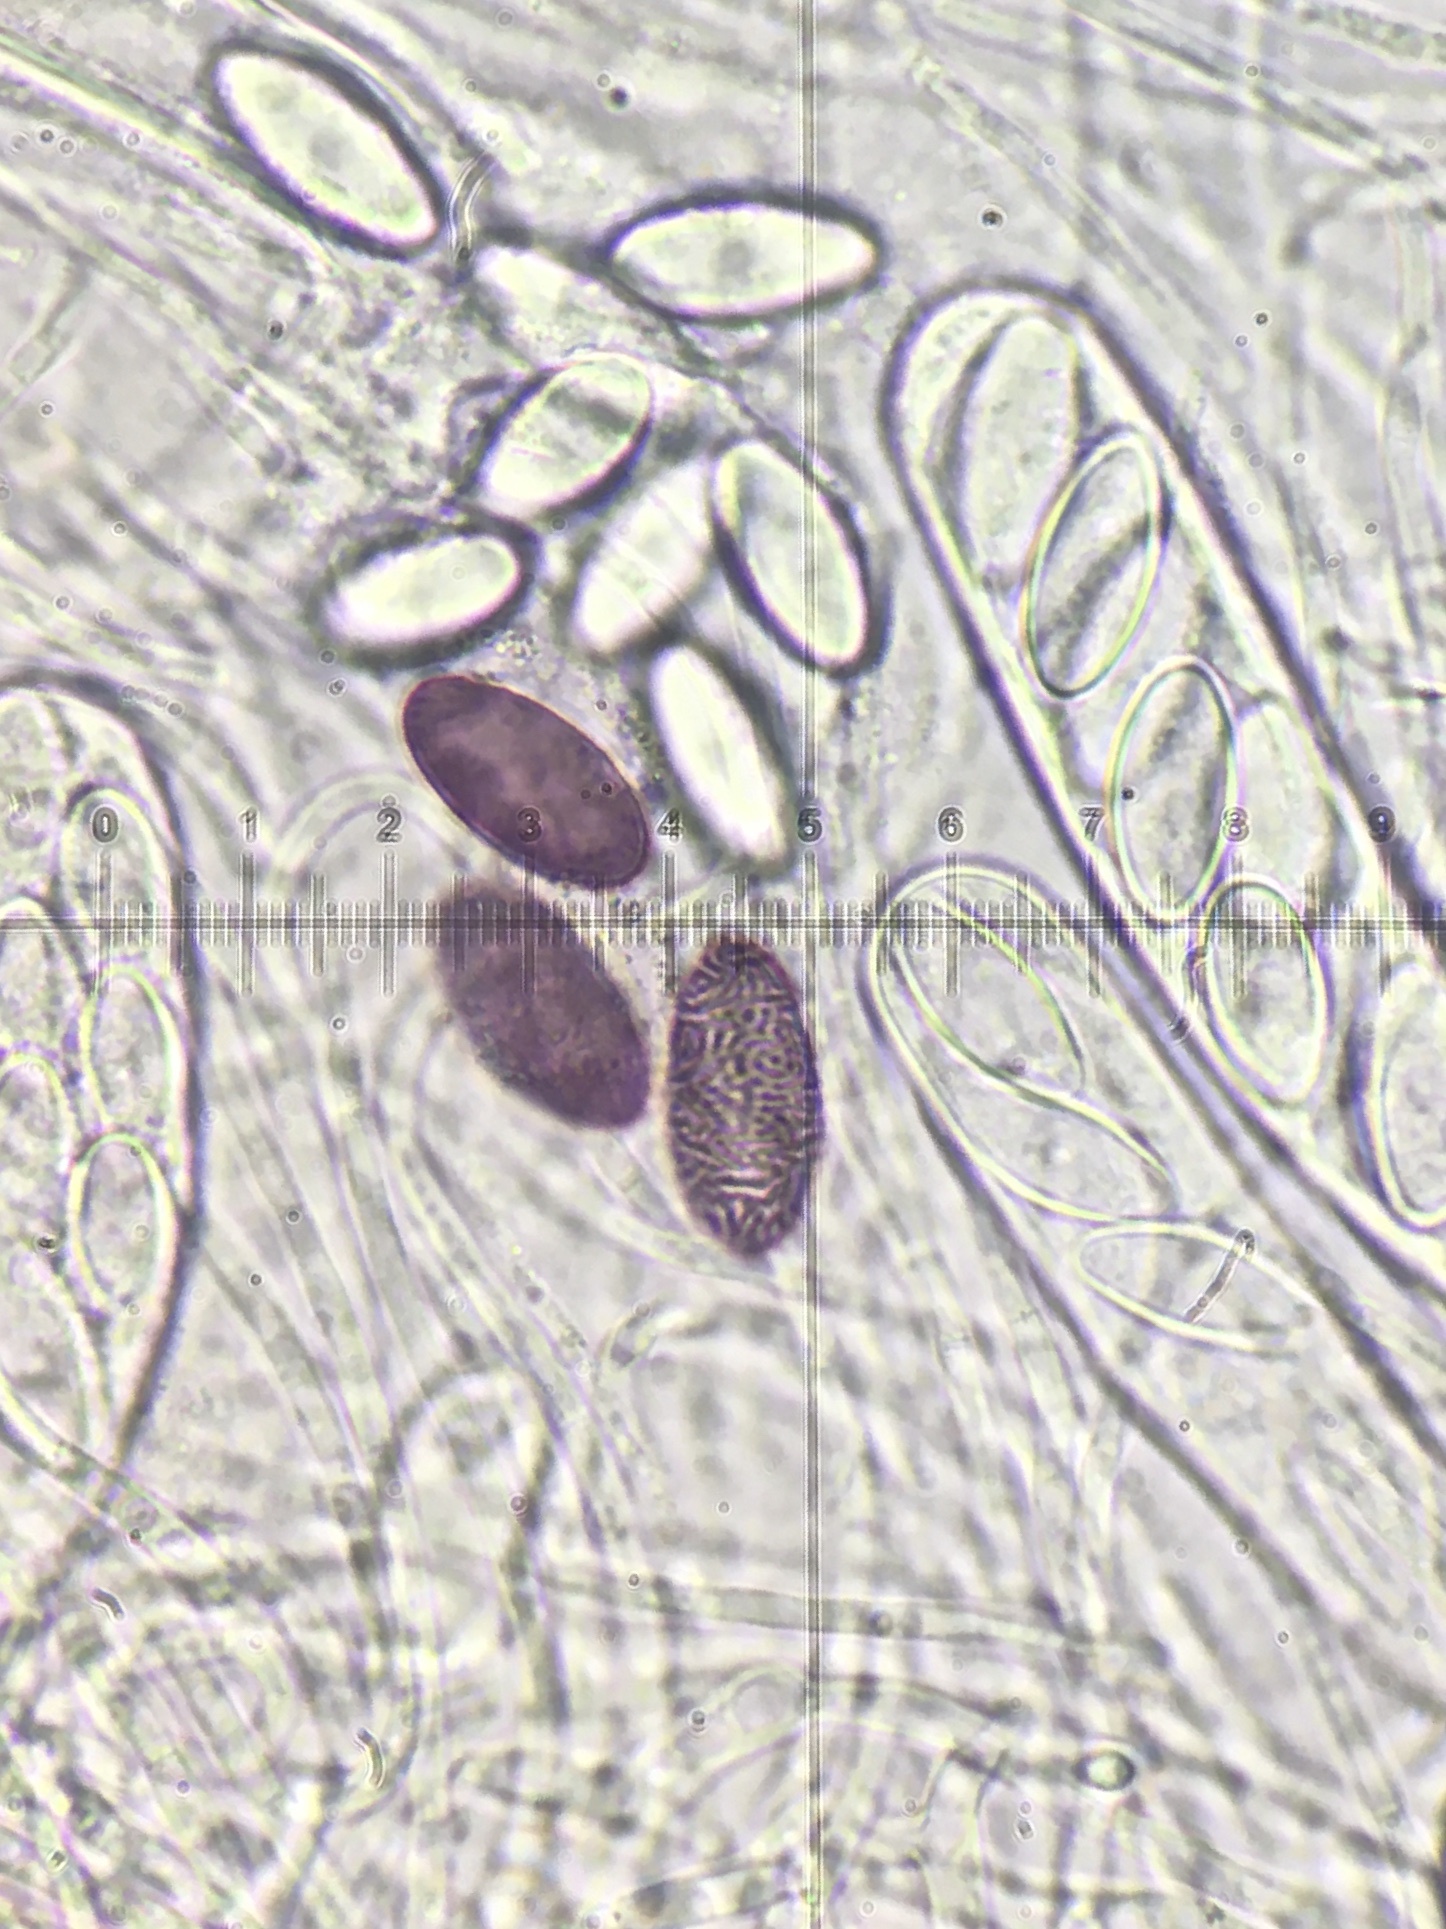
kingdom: Fungi
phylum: Ascomycota
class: Pezizomycetes
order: Pezizales
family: Ascobolaceae
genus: Ascobolus
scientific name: Ascobolus albidus
